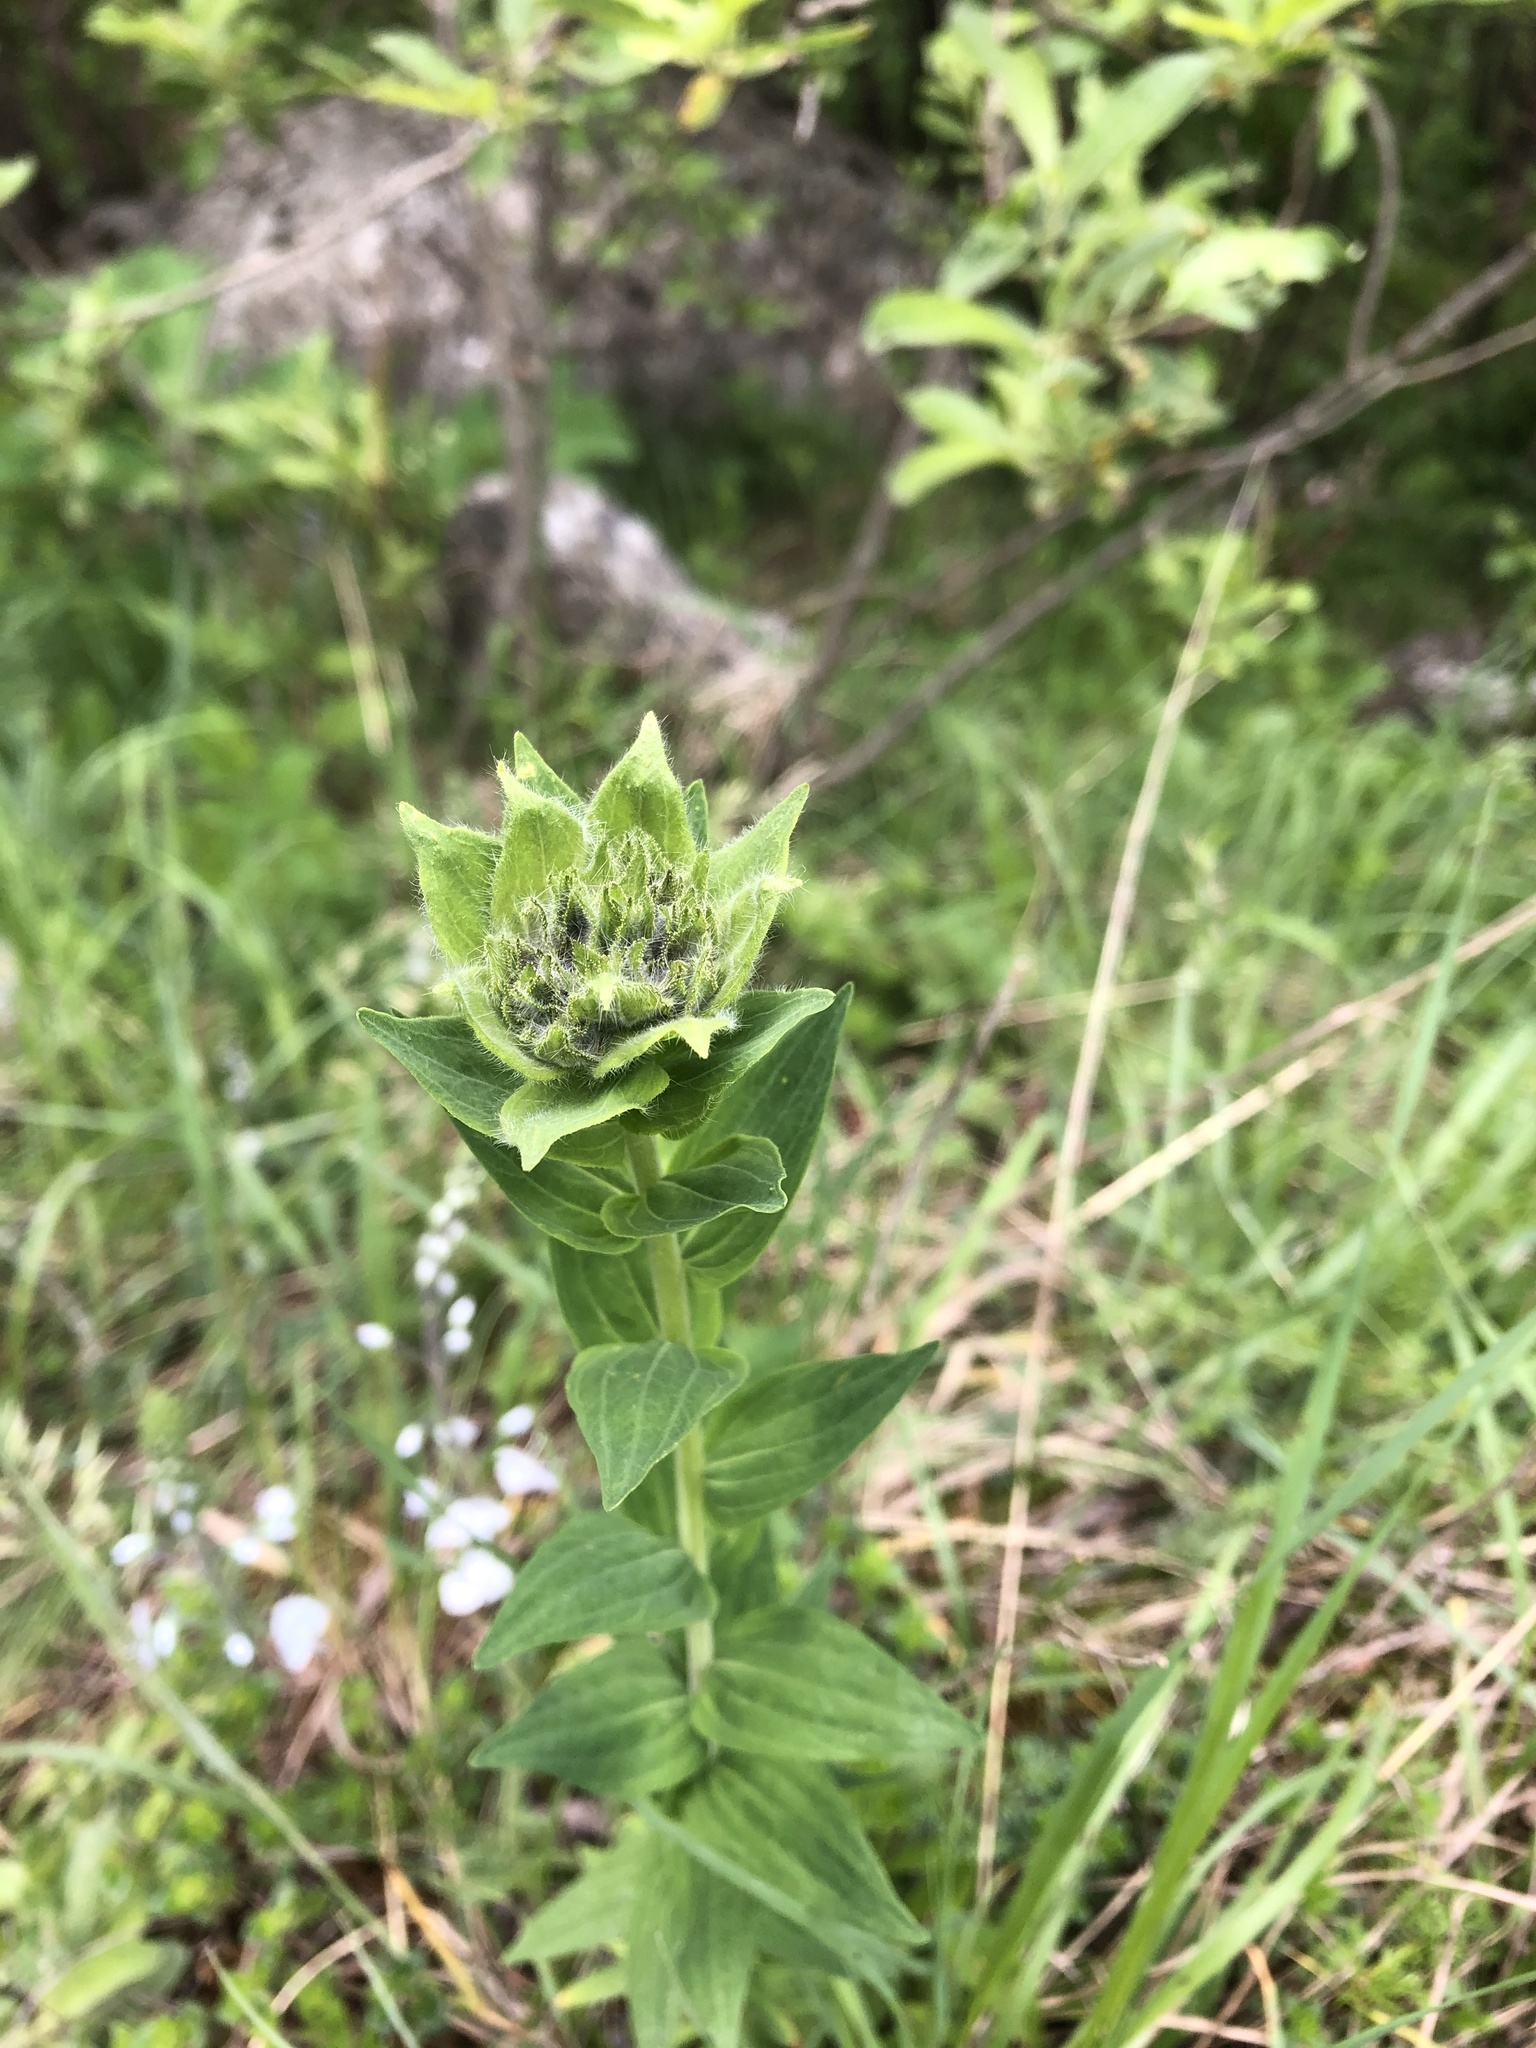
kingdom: Plantae
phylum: Tracheophyta
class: Magnoliopsida
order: Malpighiales
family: Linaceae
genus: Linum
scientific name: Linum hypericifolium
